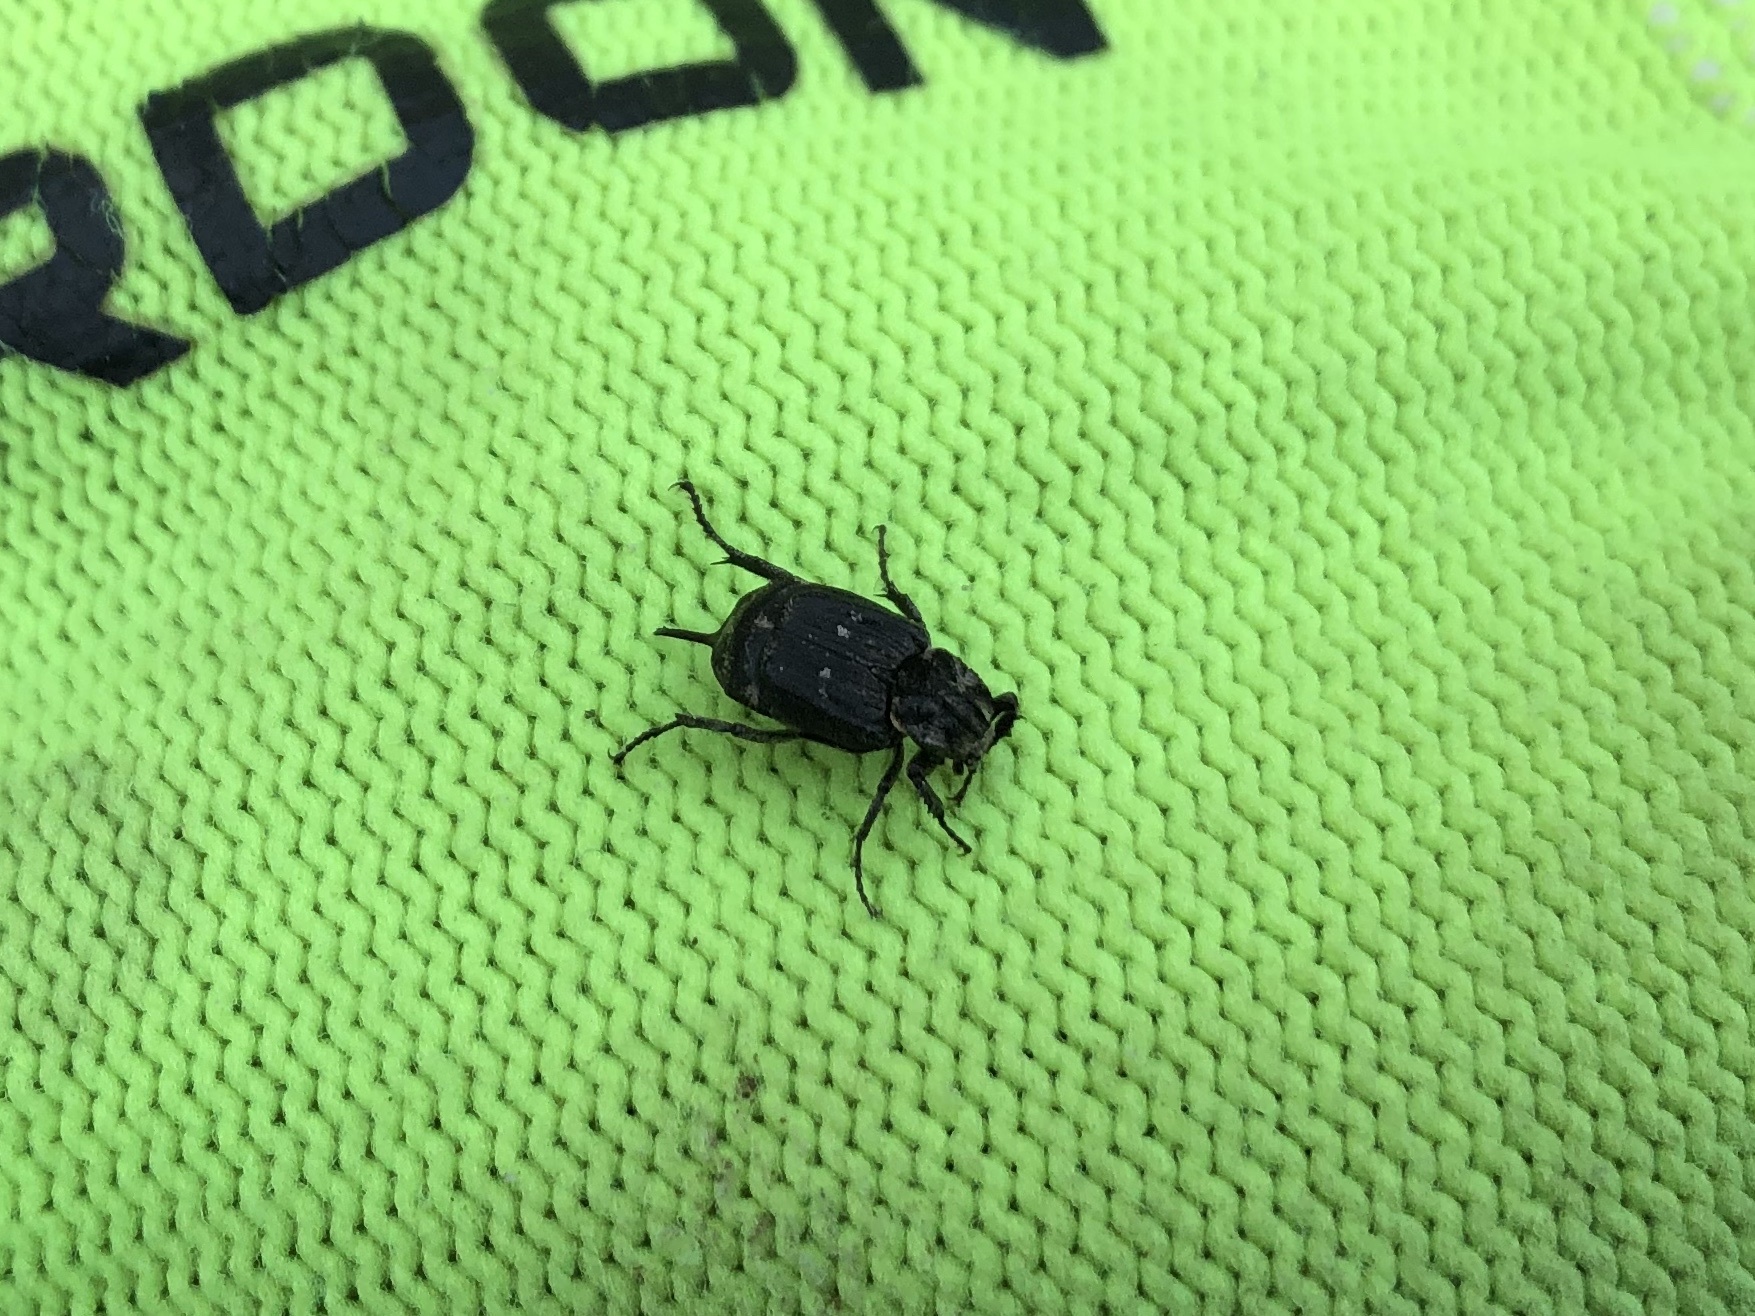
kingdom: Animalia
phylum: Arthropoda
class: Insecta
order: Coleoptera
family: Scarabaeidae
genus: Valgus
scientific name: Valgus hemipterus
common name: Bug flower chafer
